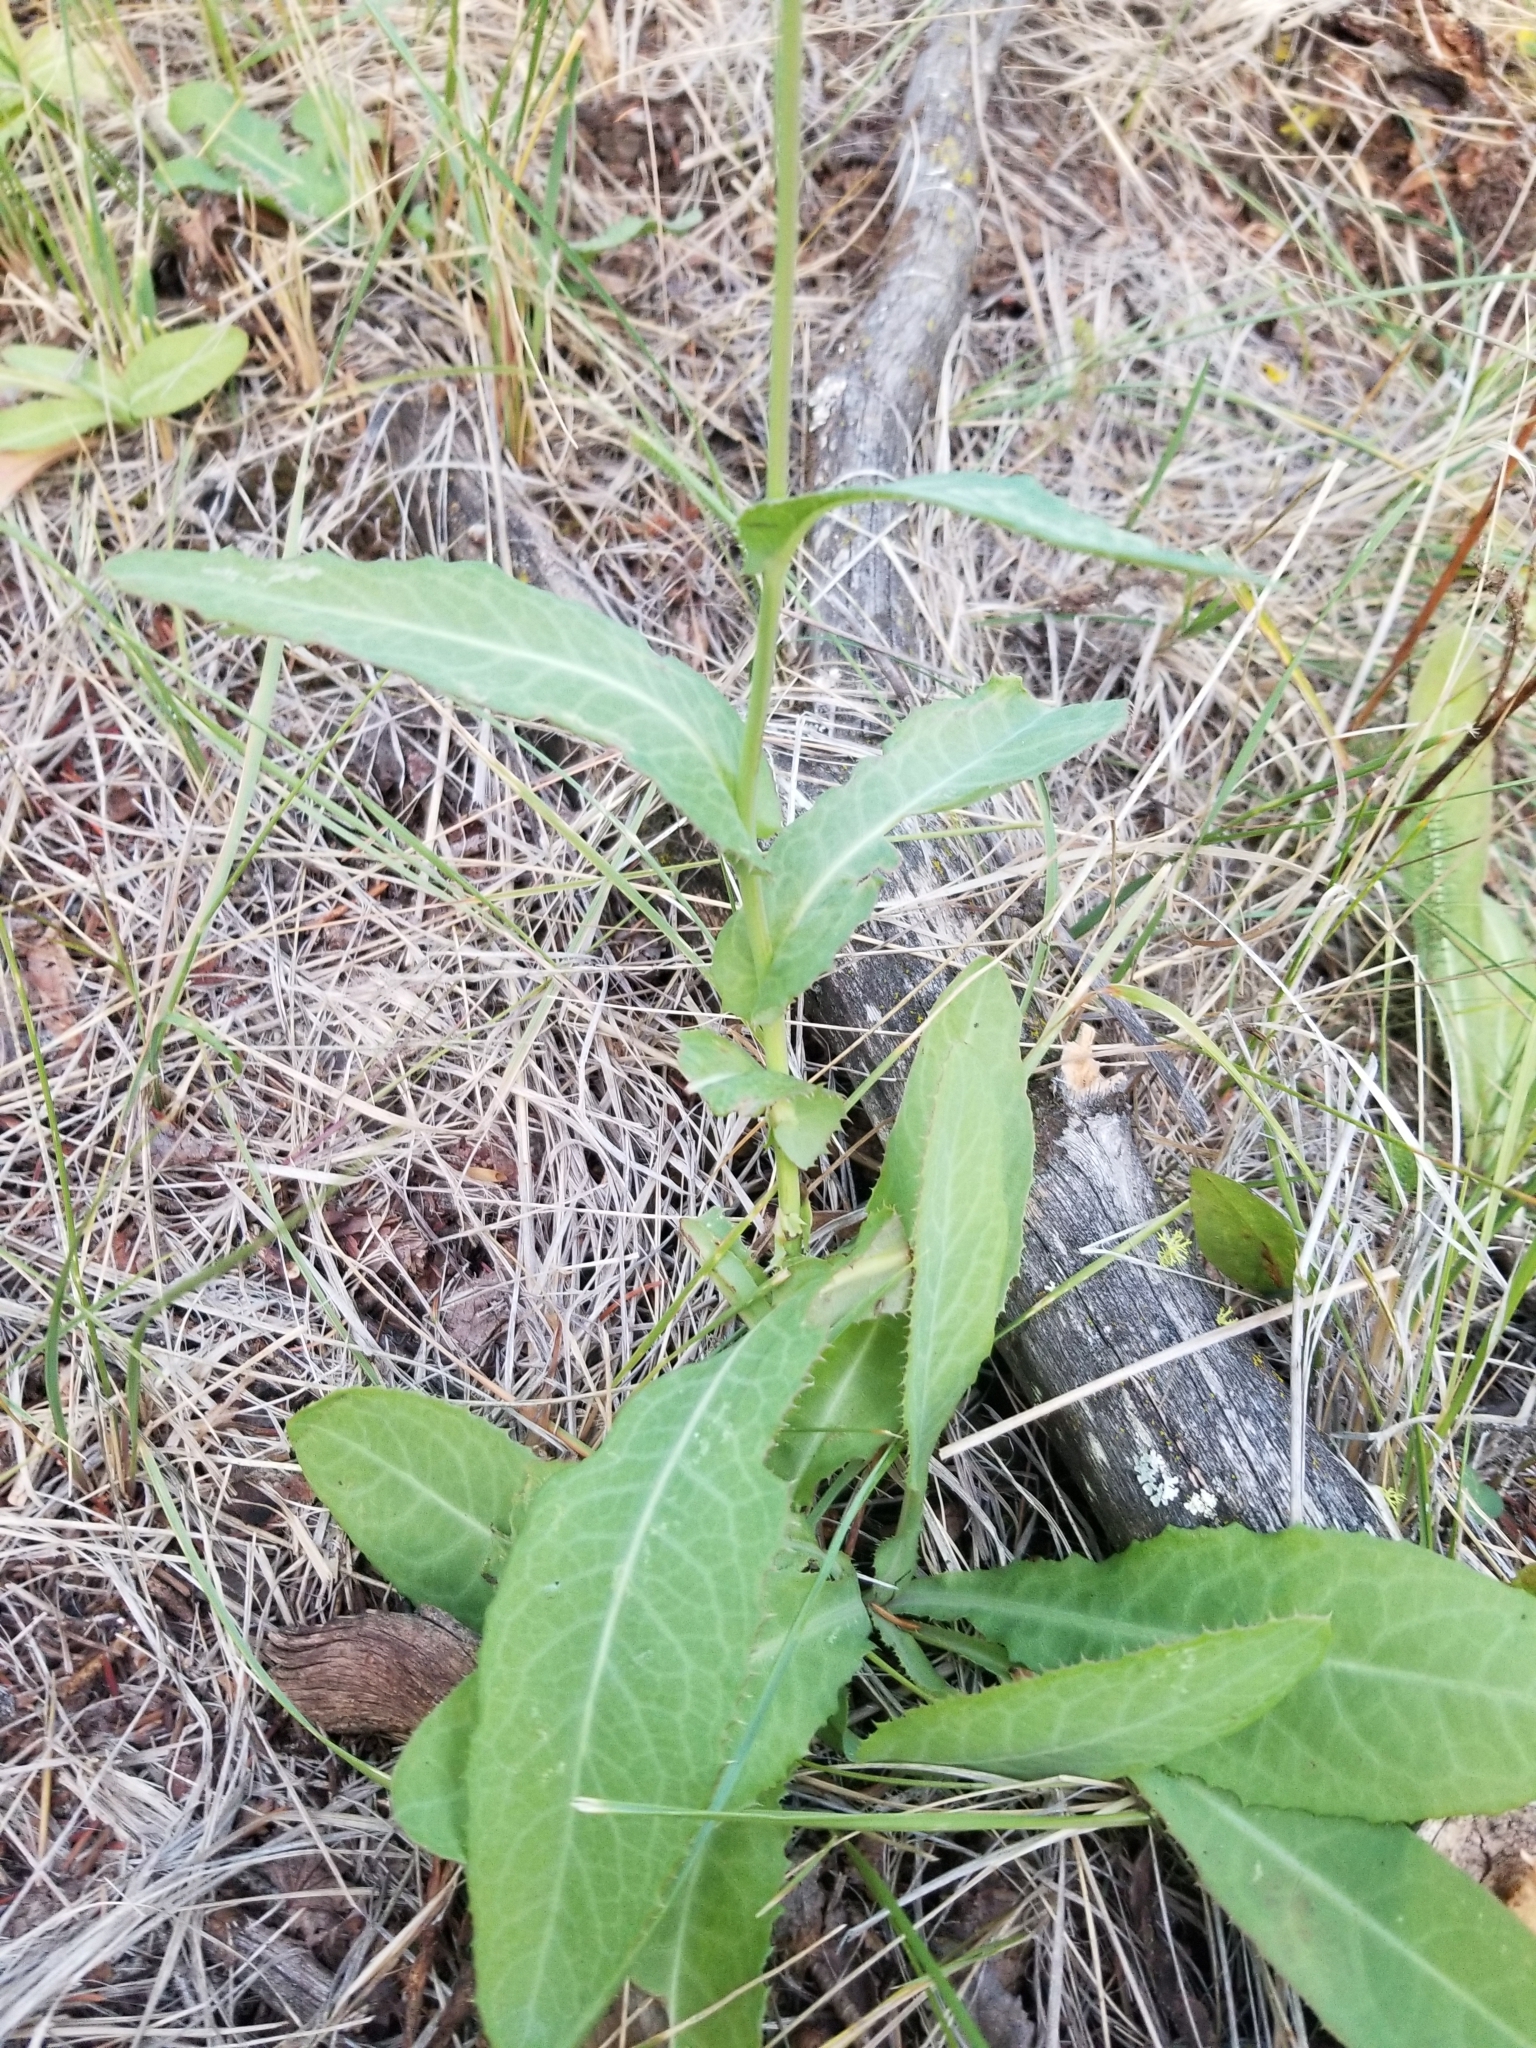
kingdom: Plantae
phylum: Tracheophyta
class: Magnoliopsida
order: Asterales
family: Asteraceae
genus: Sonchus
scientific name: Sonchus arvensis
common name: Perennial sow-thistle
